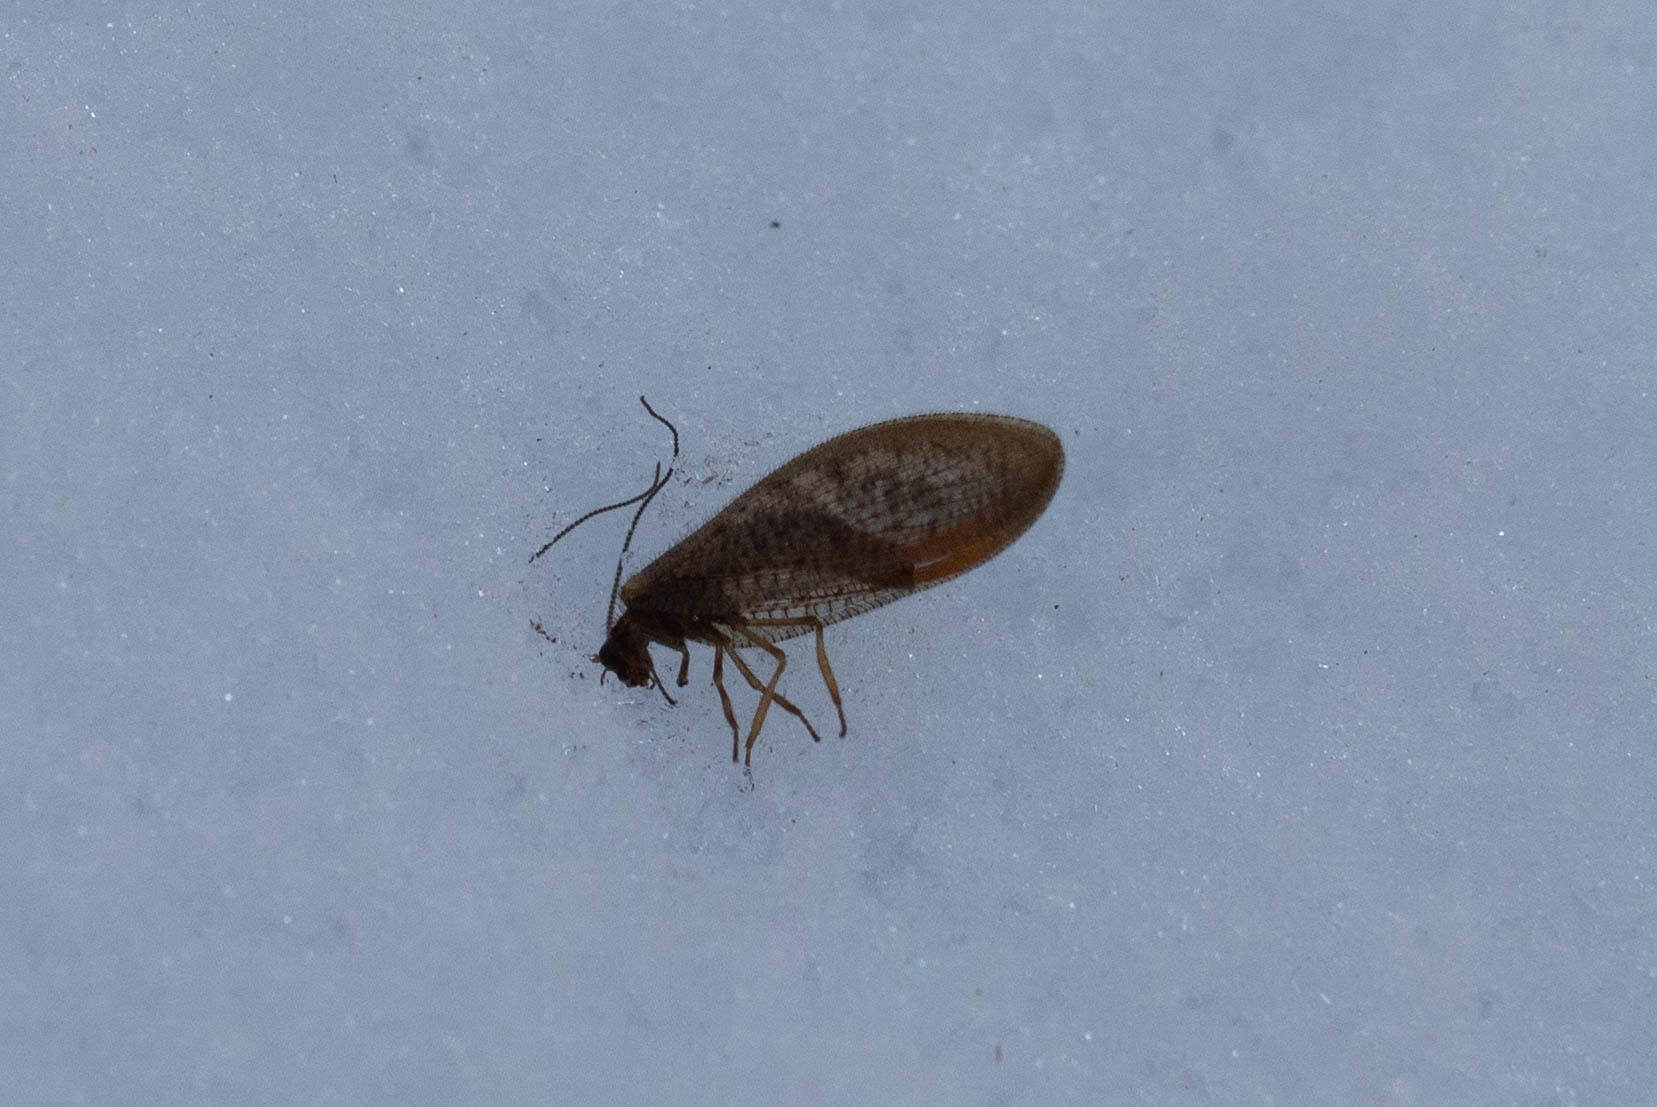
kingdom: Animalia
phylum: Arthropoda
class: Insecta
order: Neuroptera
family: Hemerobiidae
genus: Hemerobius
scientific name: Hemerobius stigma
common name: Brown pine lacewing
